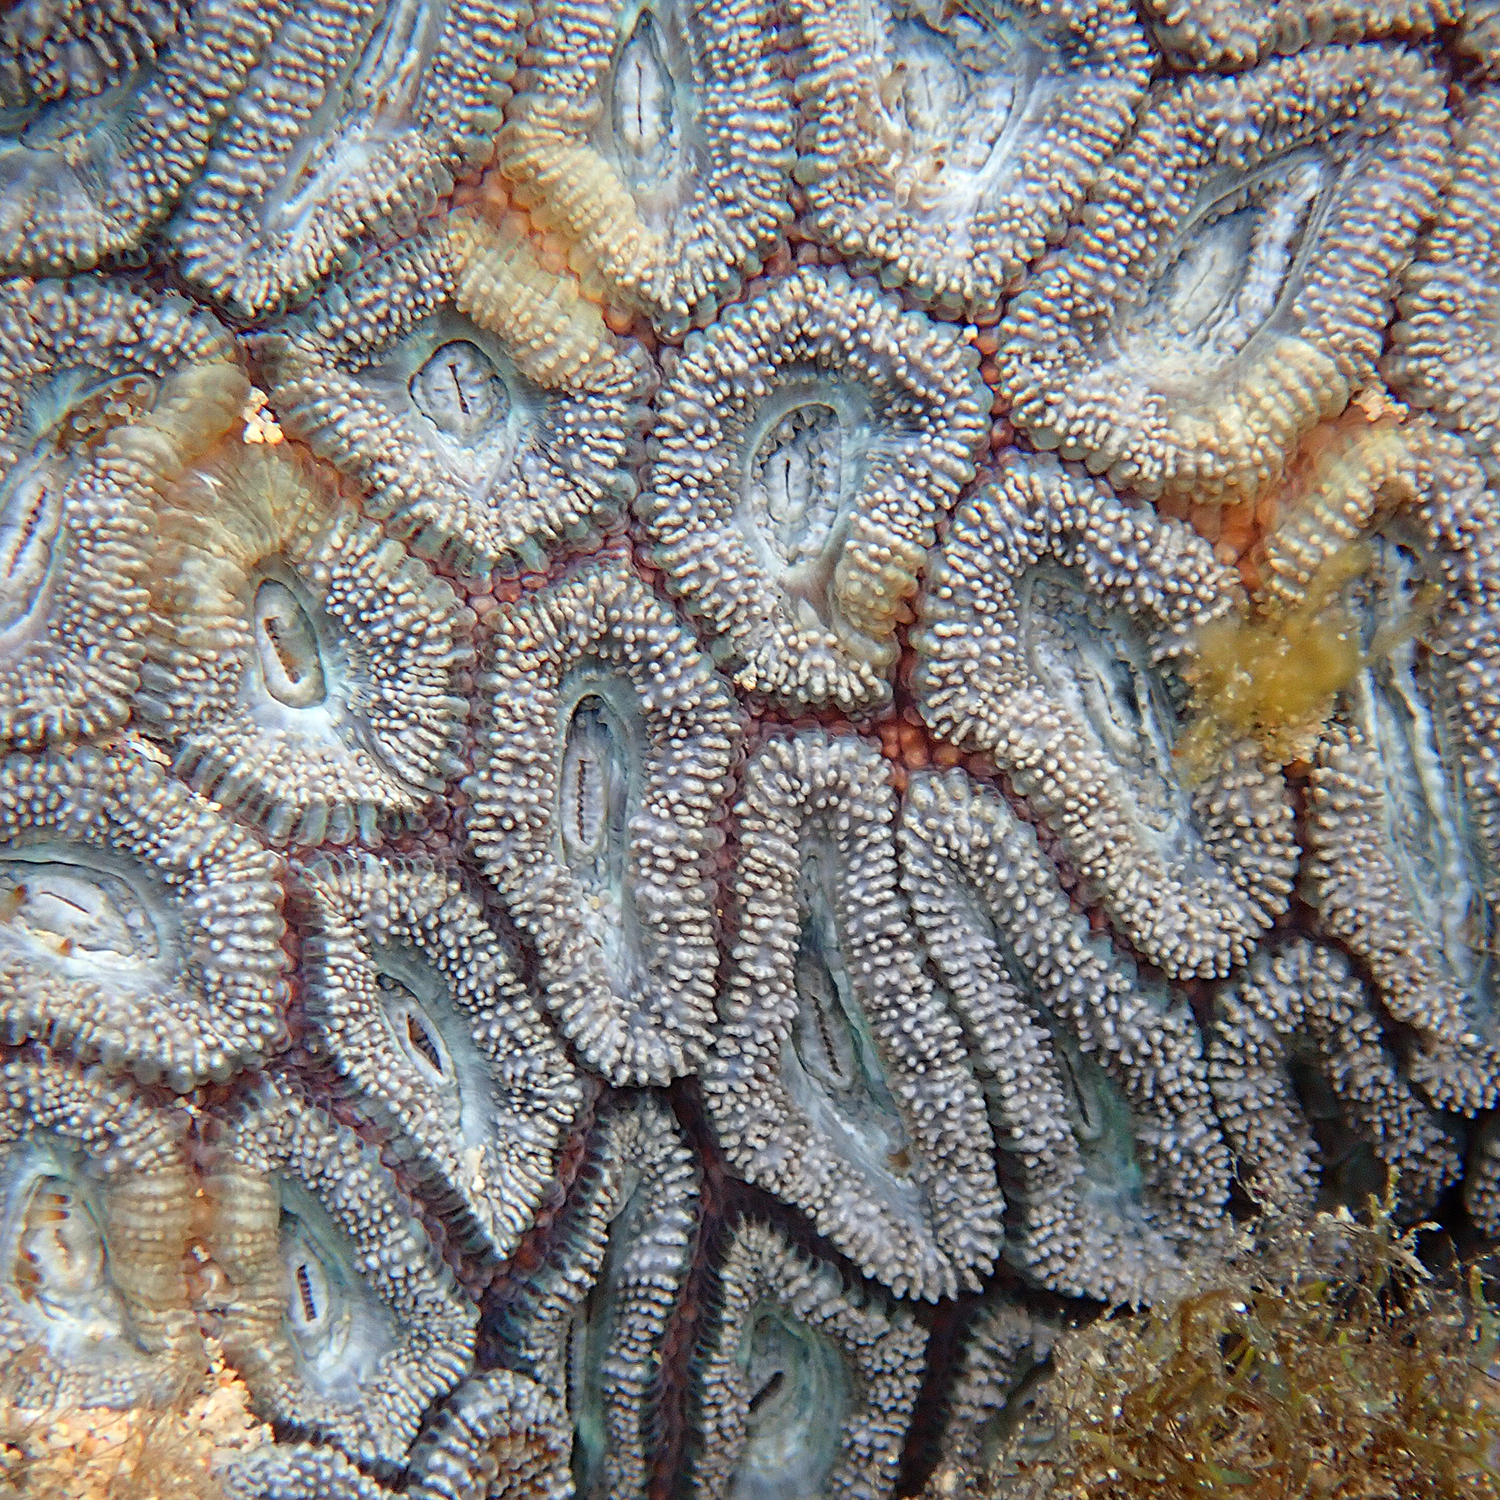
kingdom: Animalia
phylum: Cnidaria
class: Anthozoa
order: Scleractinia
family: Lobophylliidae
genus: Micromussa
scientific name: Micromussa lordhowensis
